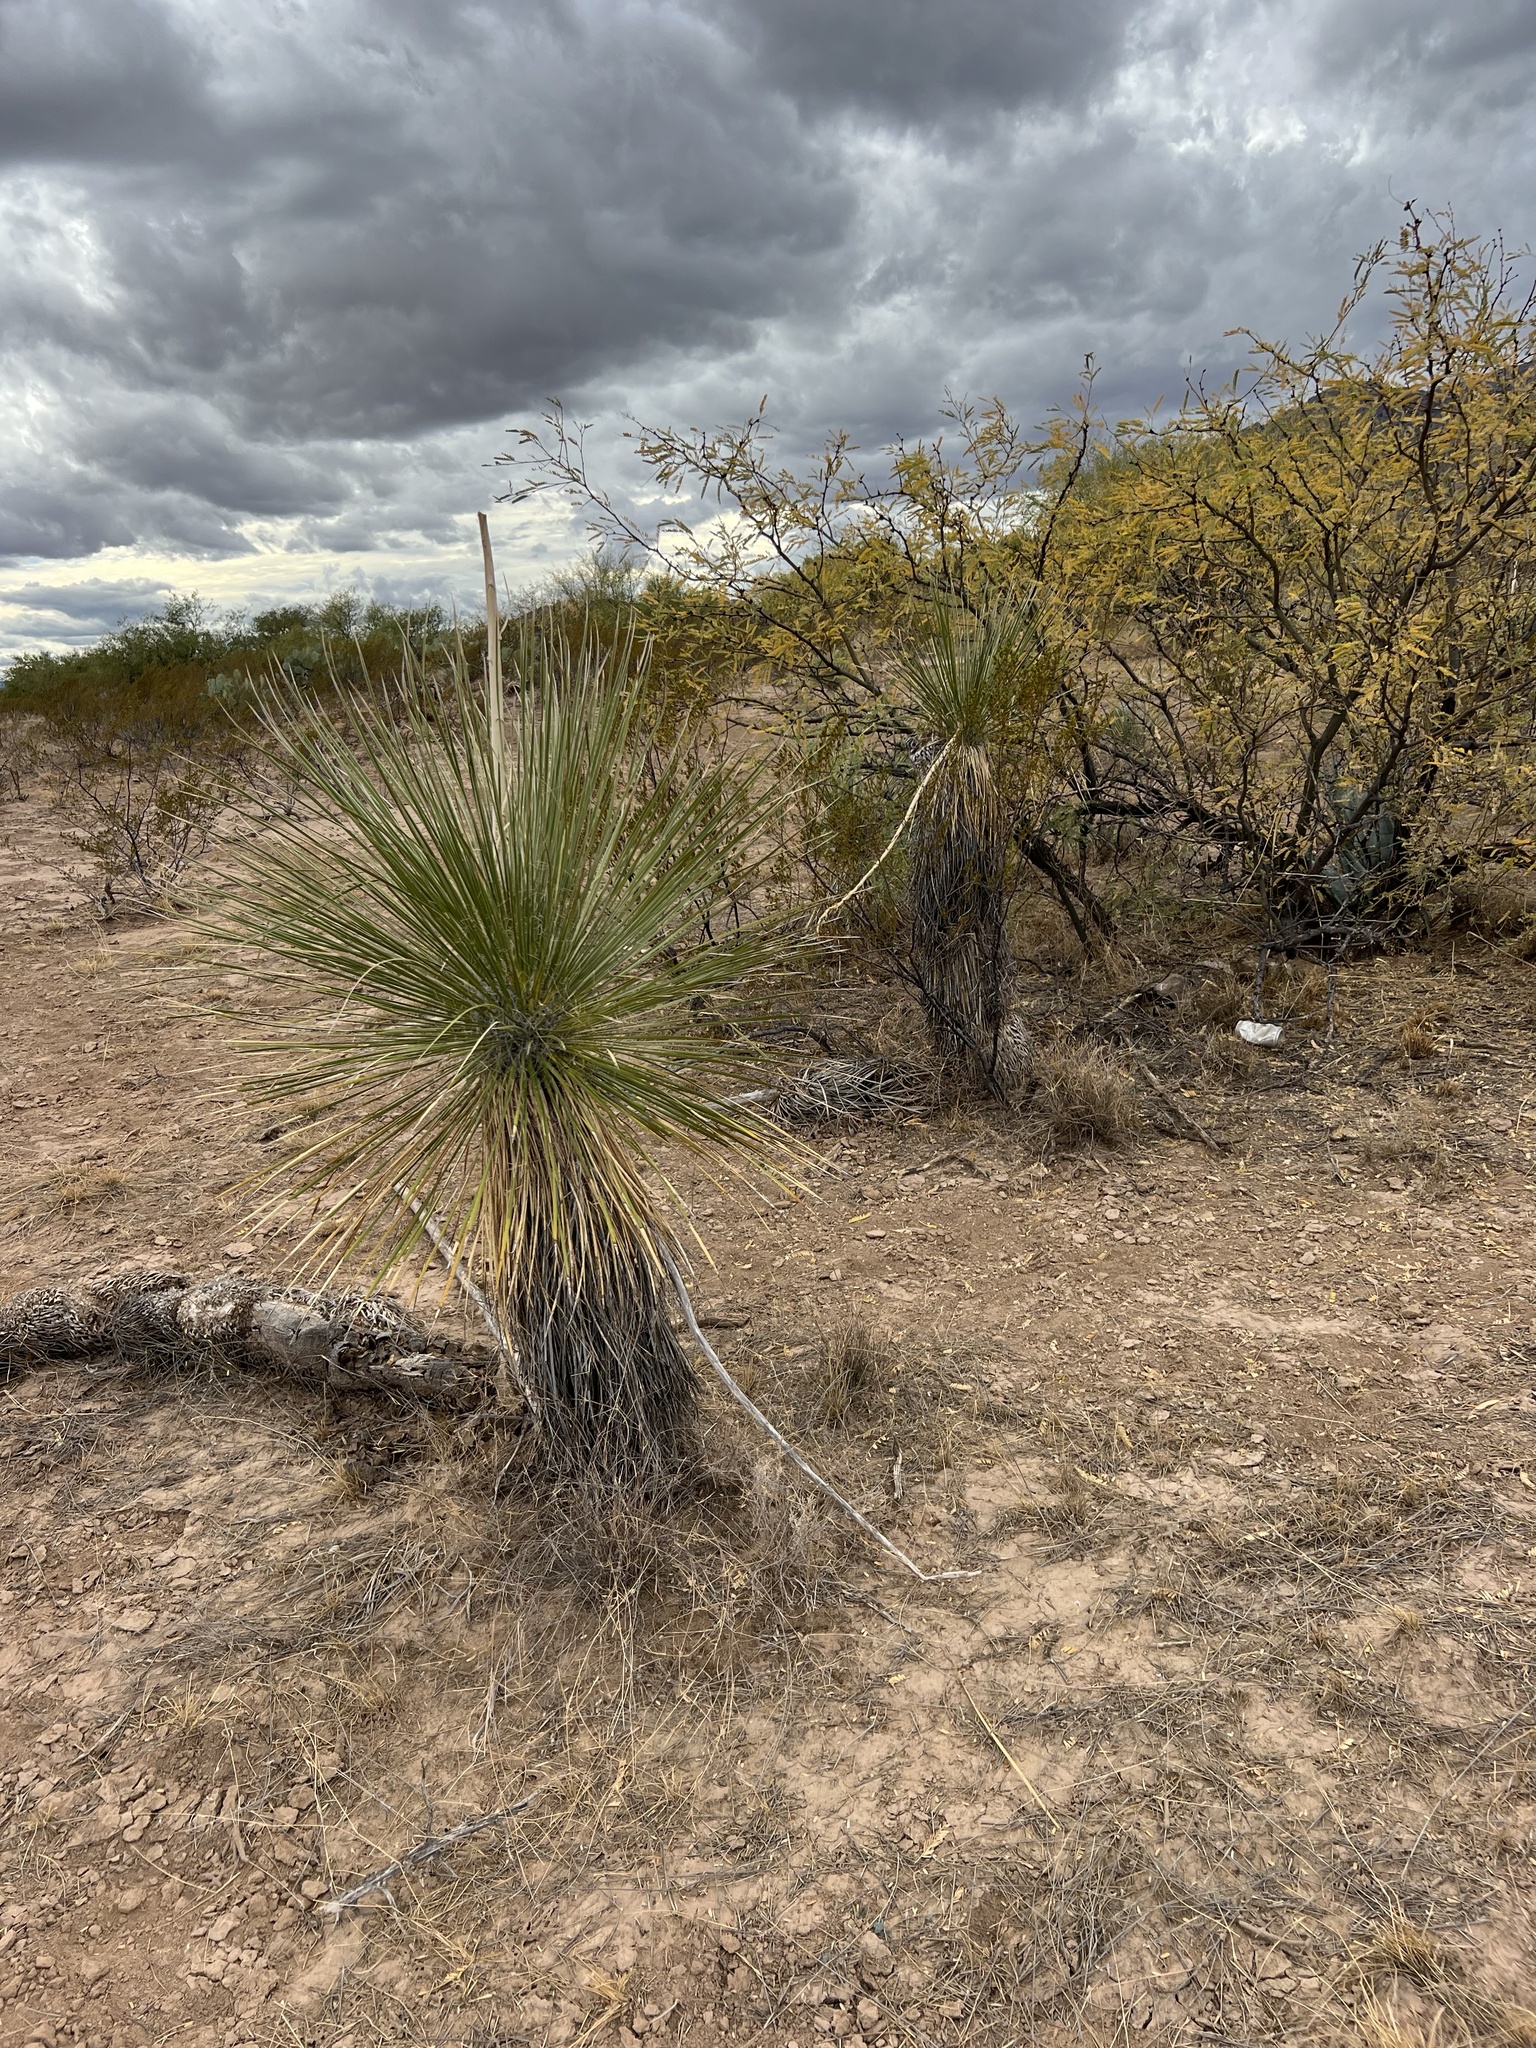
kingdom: Plantae
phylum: Tracheophyta
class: Liliopsida
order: Asparagales
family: Asparagaceae
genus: Yucca
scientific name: Yucca elata
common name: Palmella
